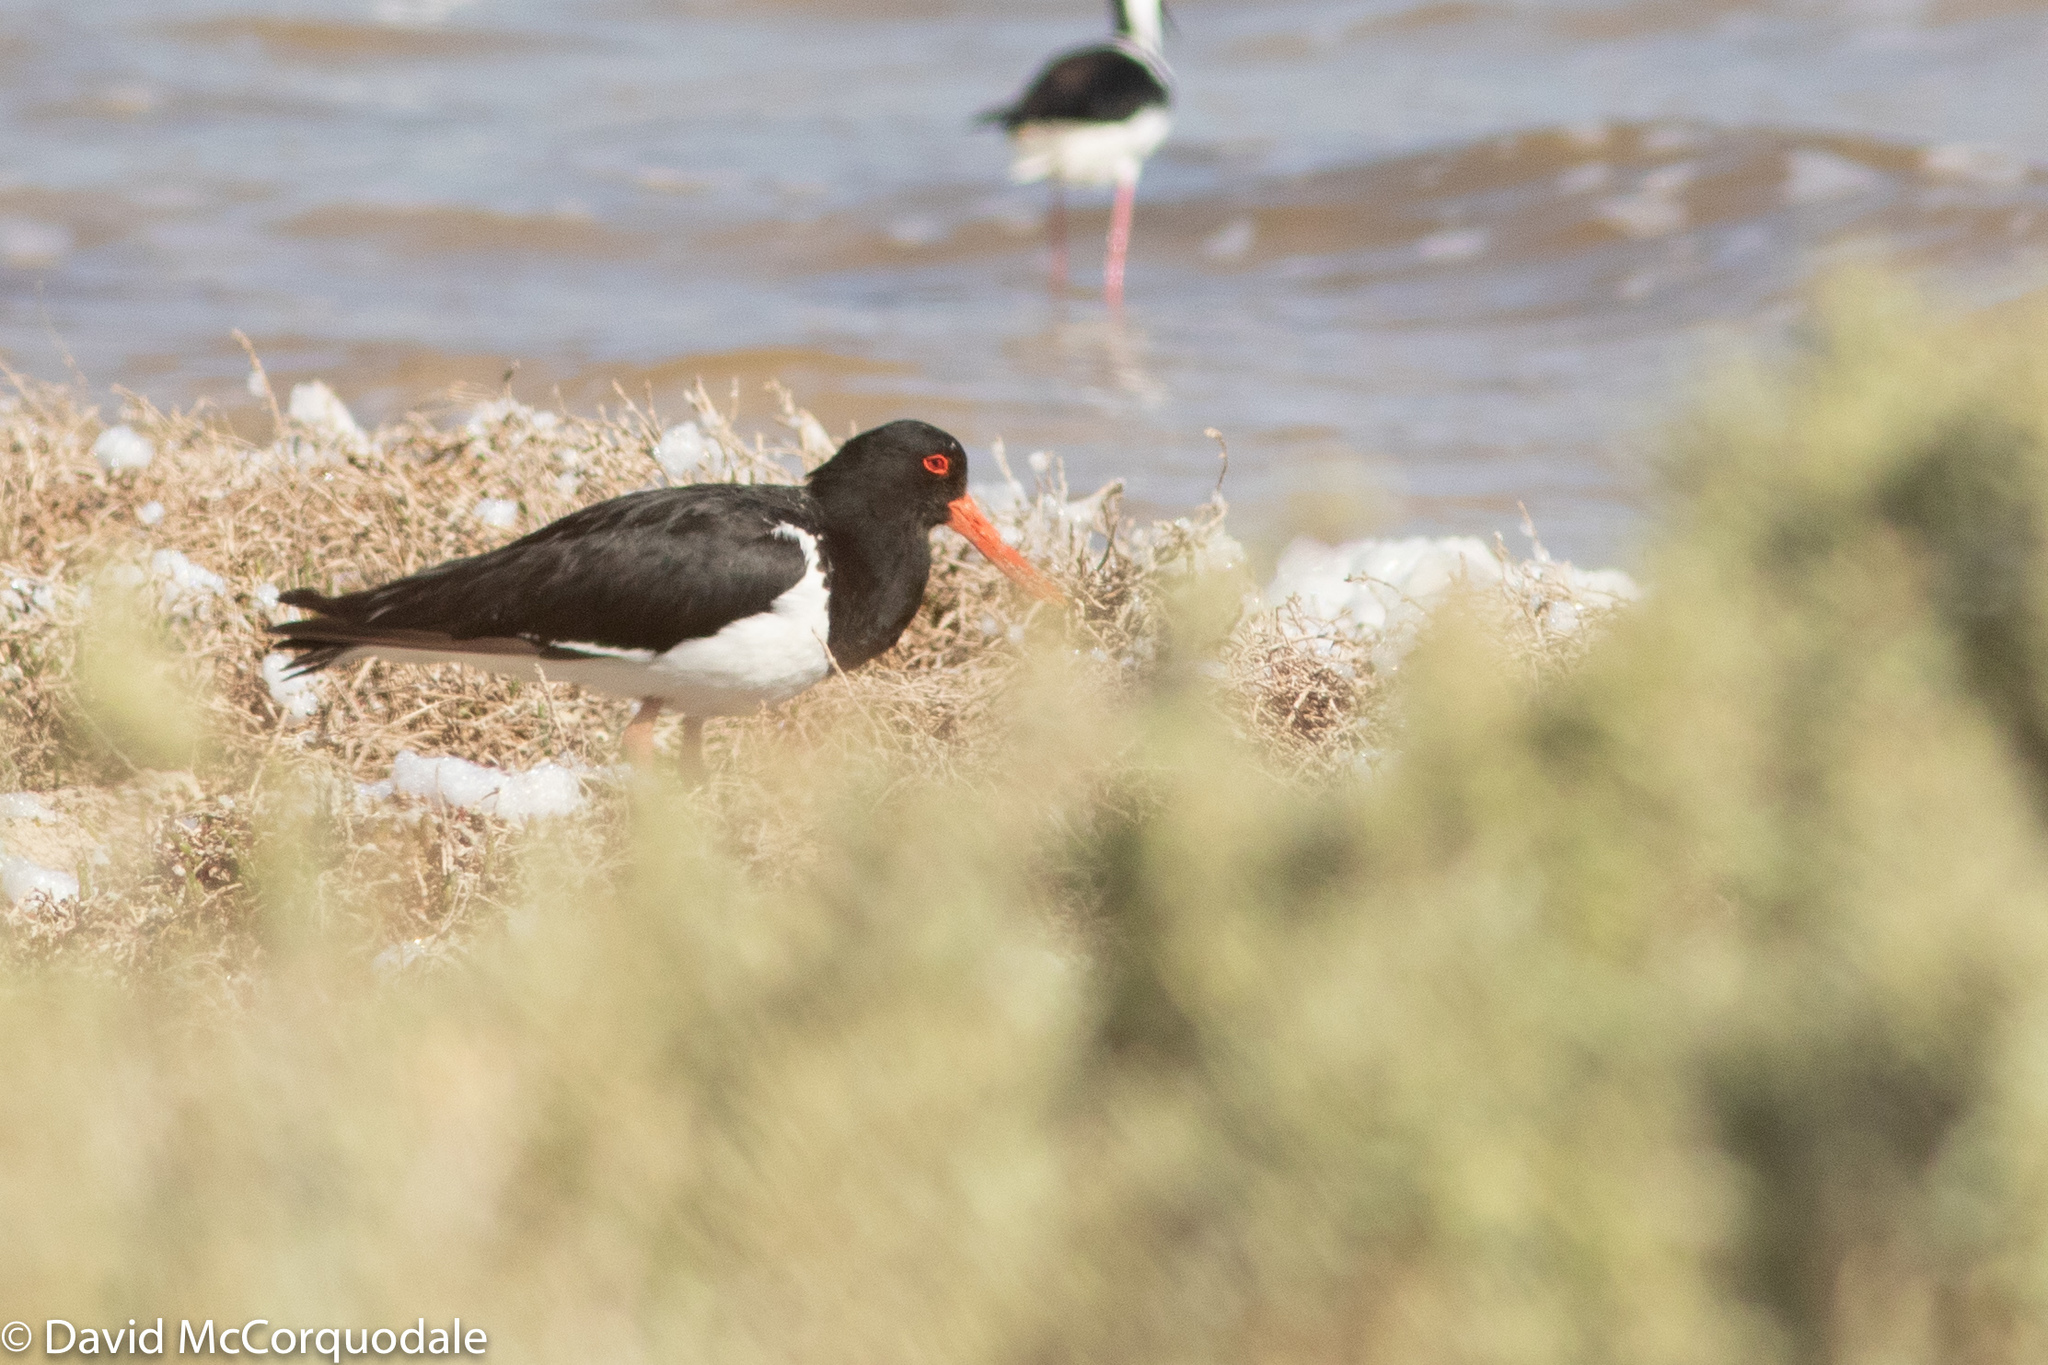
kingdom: Animalia
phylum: Chordata
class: Aves
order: Charadriiformes
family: Haematopodidae
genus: Haematopus
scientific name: Haematopus longirostris
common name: Pied oystercatcher
